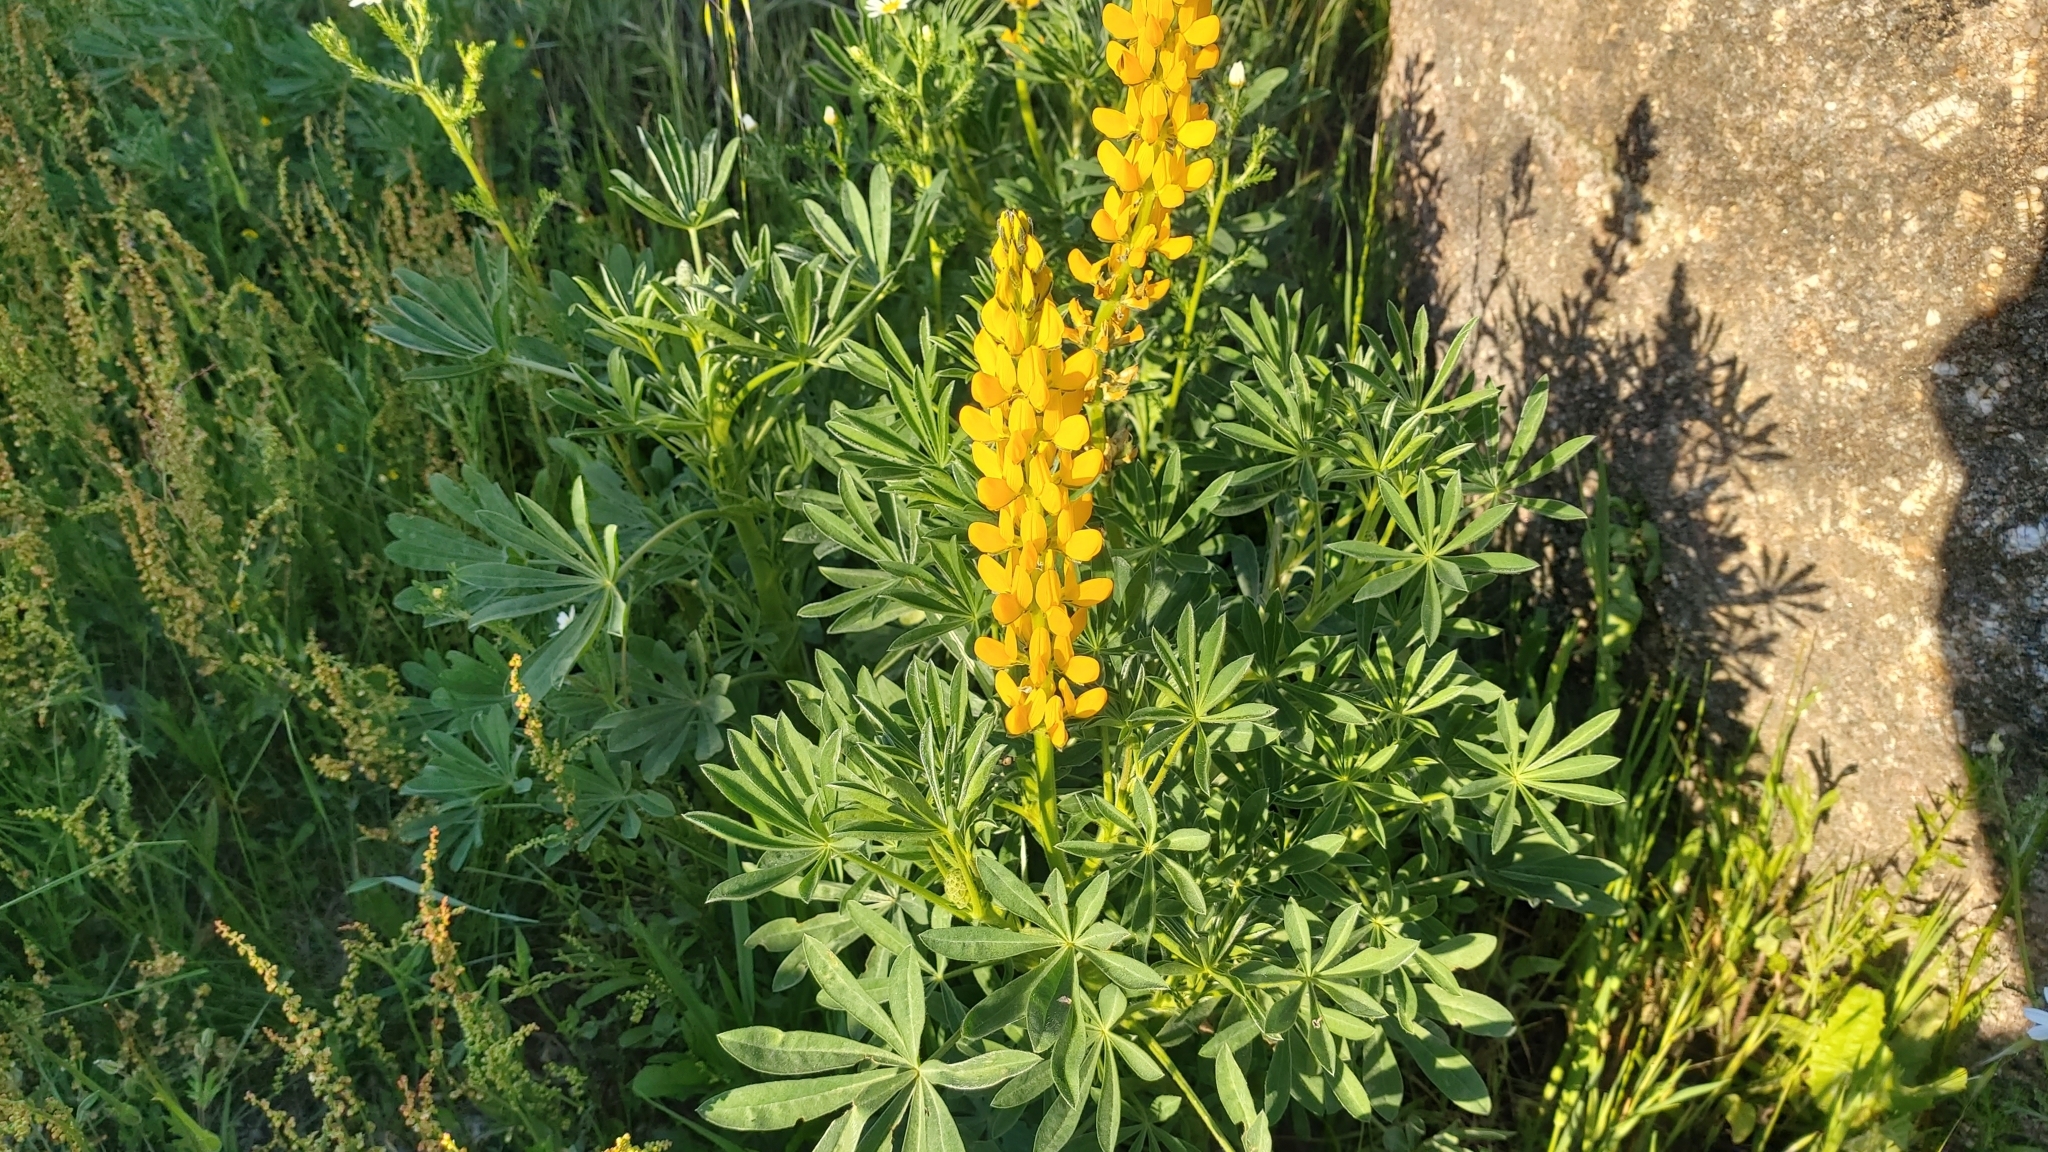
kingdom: Plantae
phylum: Tracheophyta
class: Magnoliopsida
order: Fabales
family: Fabaceae
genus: Lupinus
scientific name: Lupinus luteus
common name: European yellow lupine
